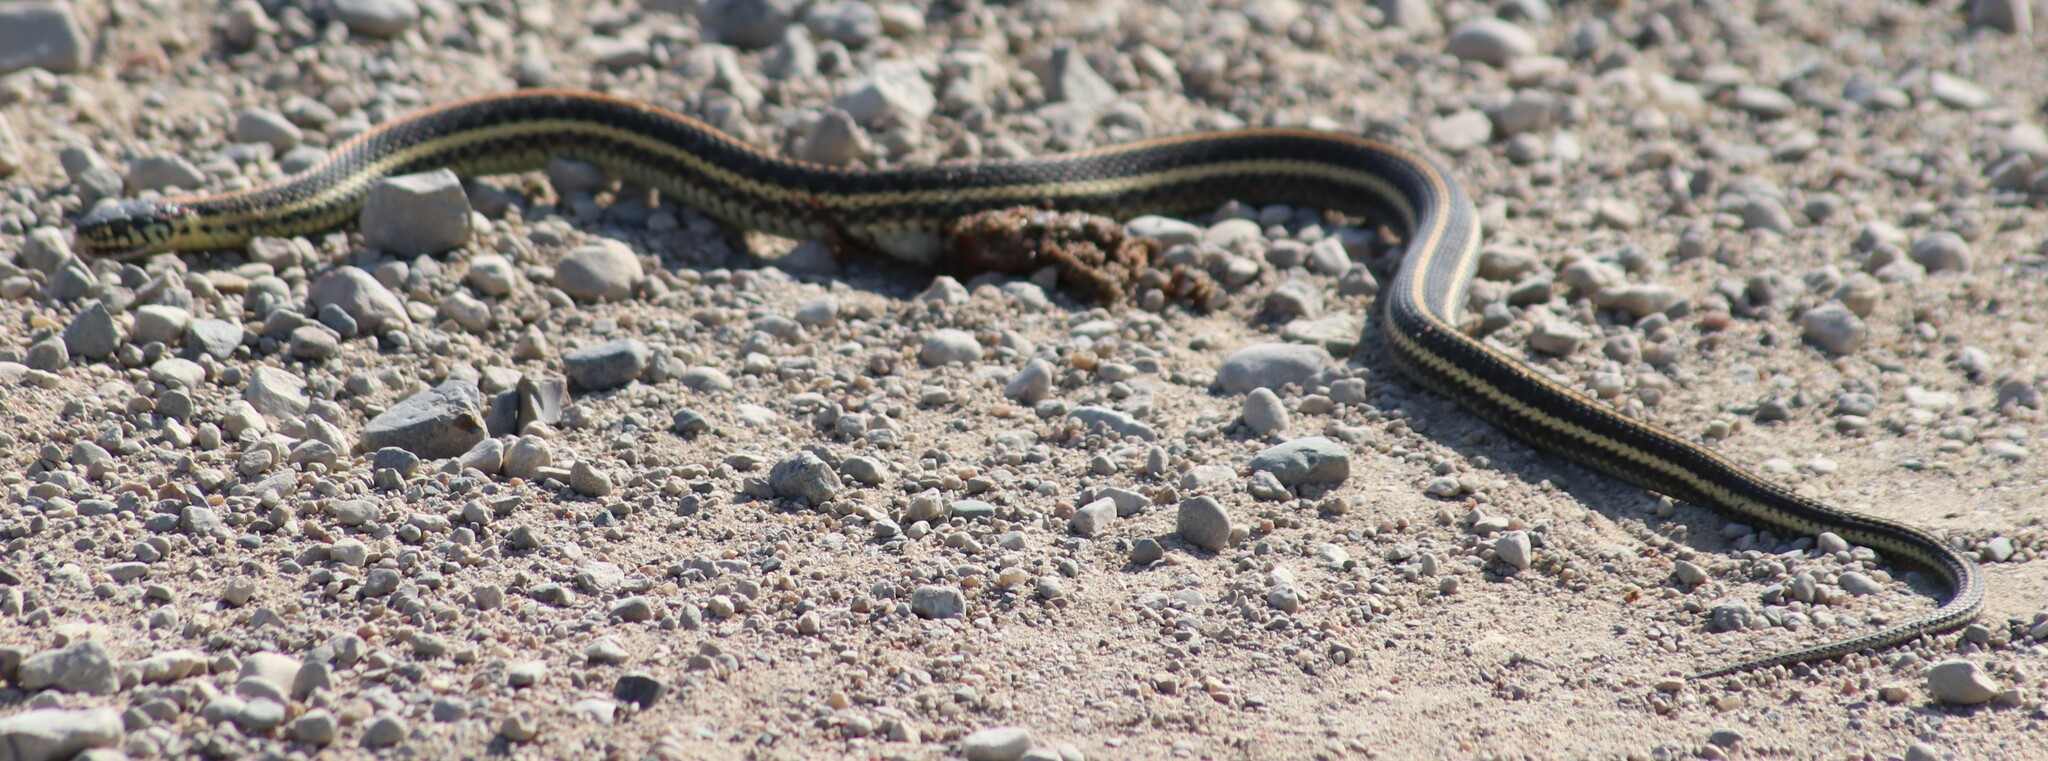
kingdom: Animalia
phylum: Chordata
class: Squamata
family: Colubridae
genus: Thamnophis
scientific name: Thamnophis radix
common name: Plains garter snake
